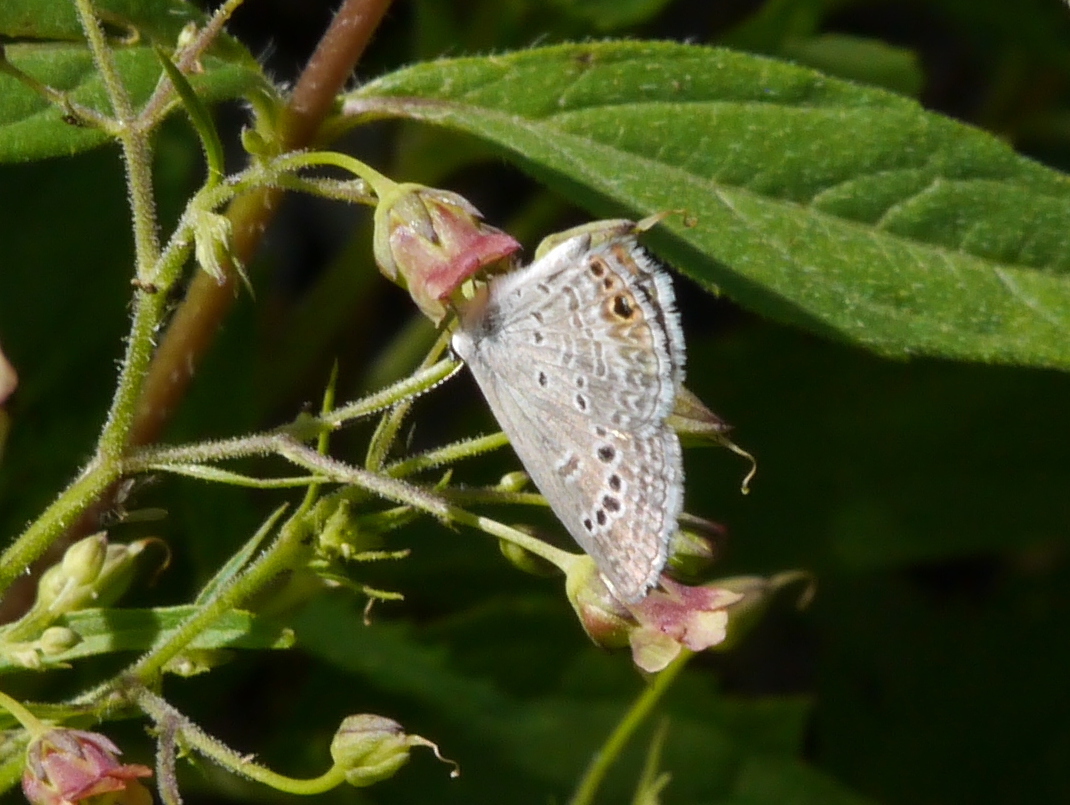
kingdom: Animalia
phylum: Arthropoda
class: Insecta
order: Lepidoptera
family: Lycaenidae
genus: Echinargus
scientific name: Echinargus isola
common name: Reakirt's blue
